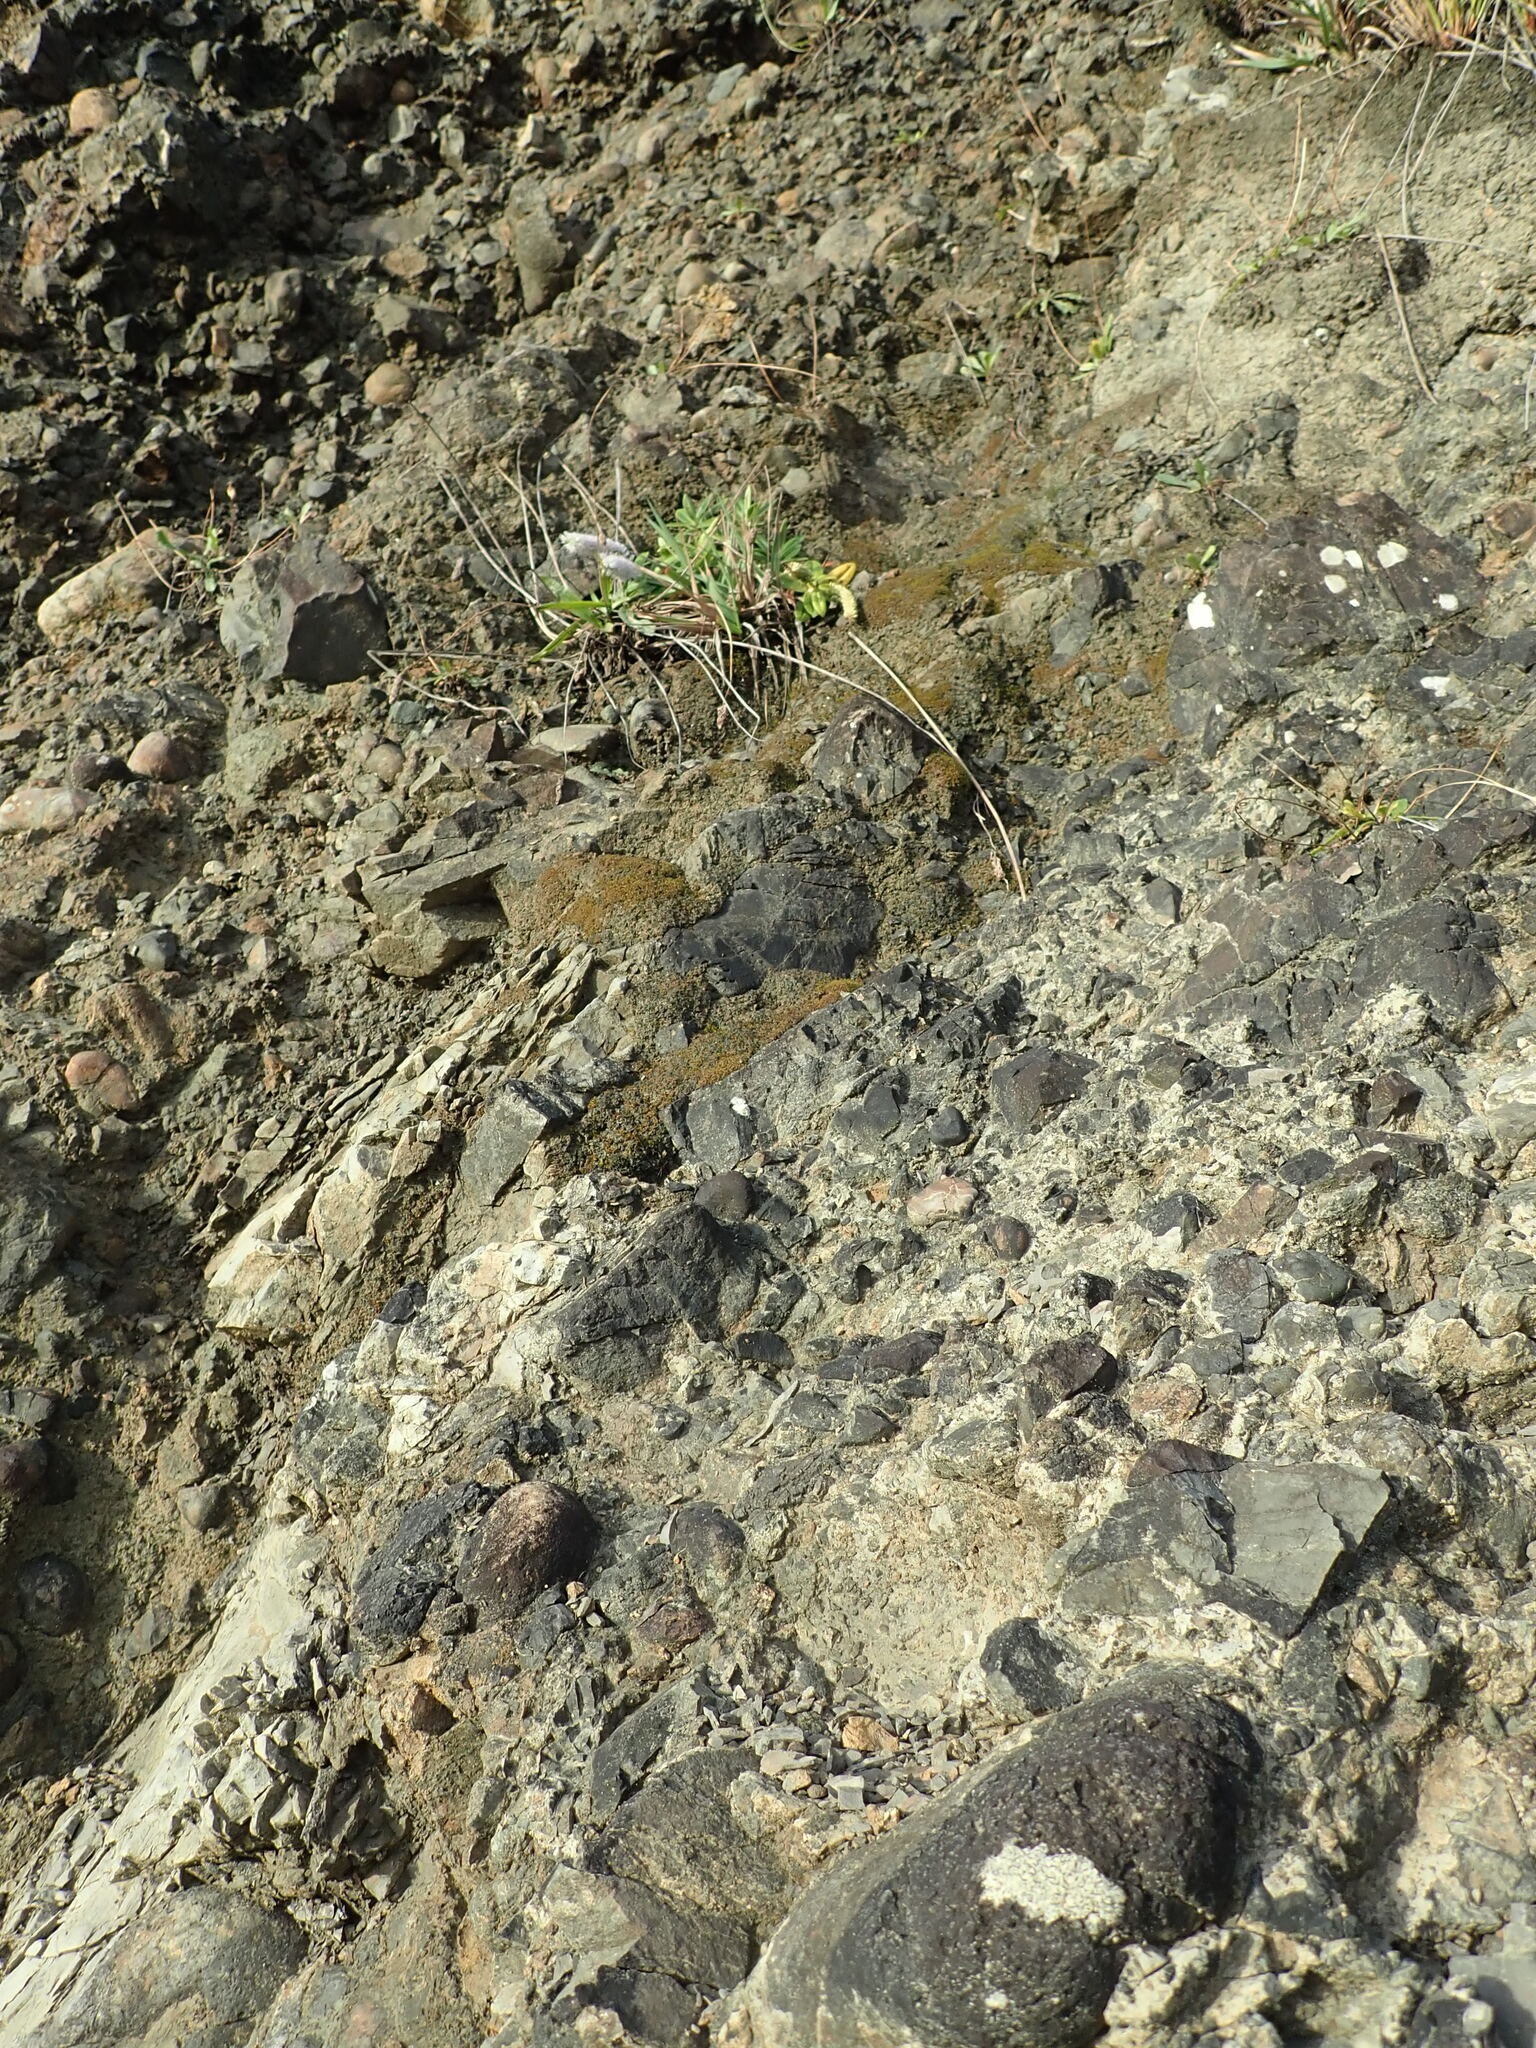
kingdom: Plantae
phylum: Tracheophyta
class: Magnoliopsida
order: Lamiales
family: Plantaginaceae
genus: Veronica
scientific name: Veronica stricta
